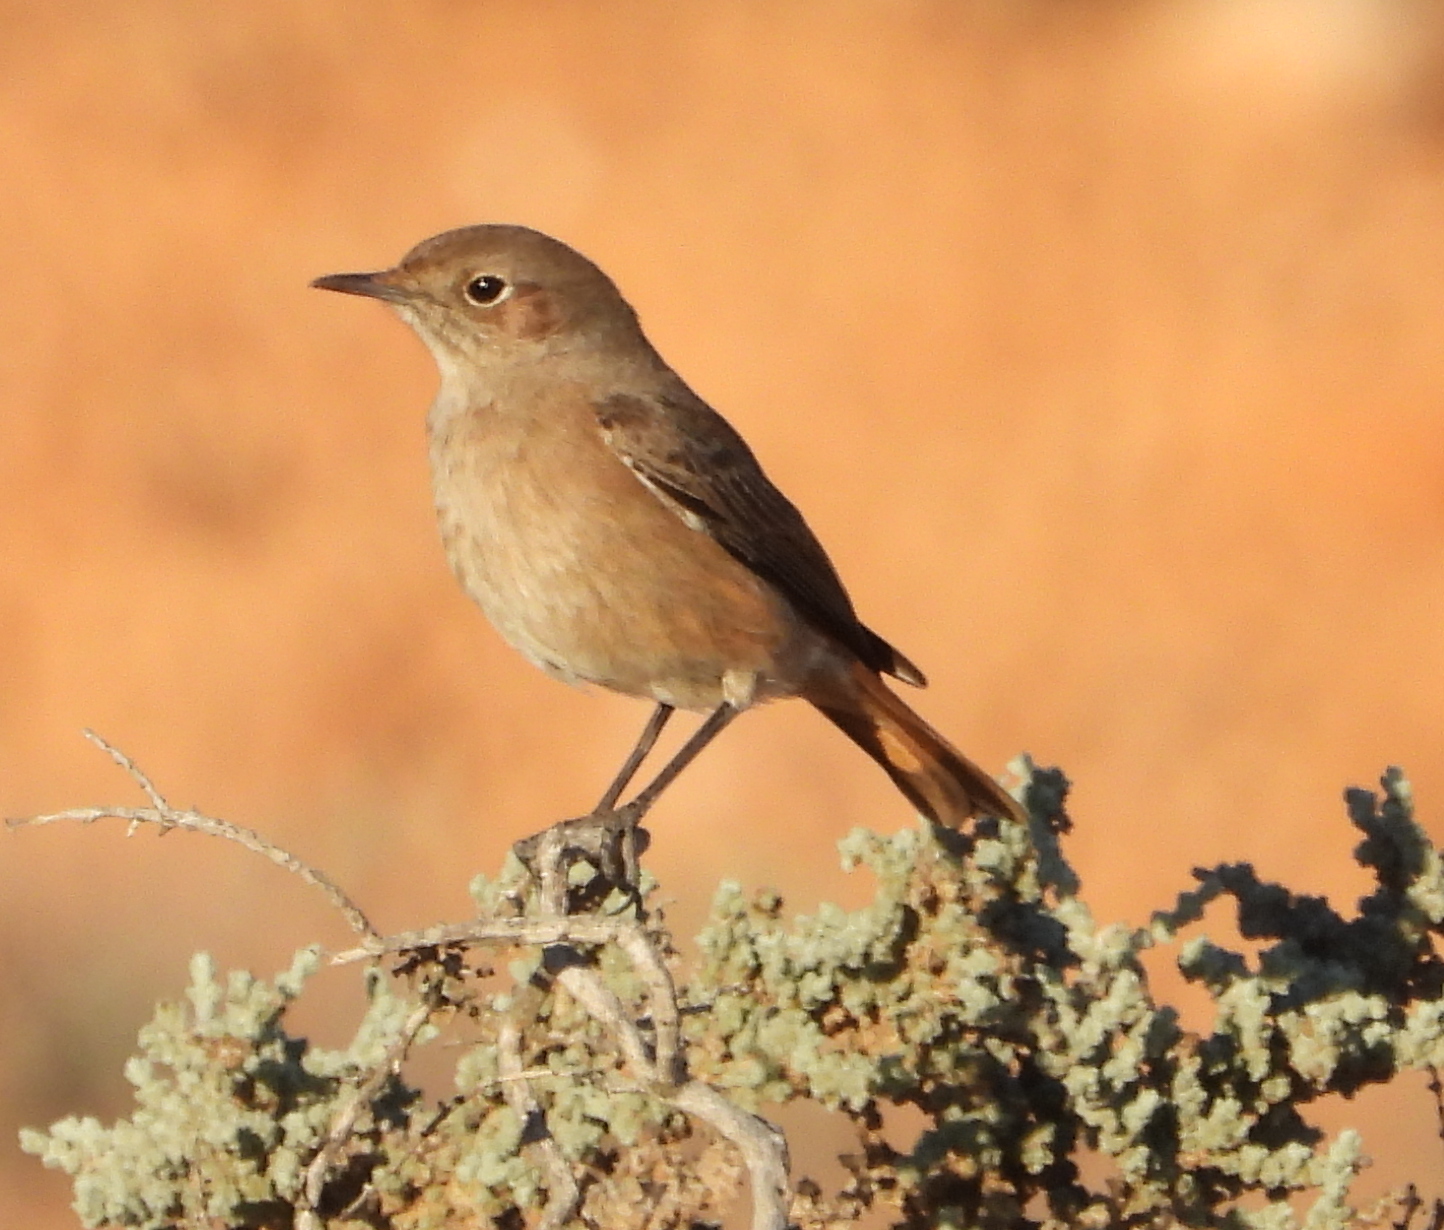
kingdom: Animalia
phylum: Chordata
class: Aves
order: Passeriformes
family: Muscicapidae
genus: Oenanthe
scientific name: Oenanthe familiaris
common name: Familiar chat
